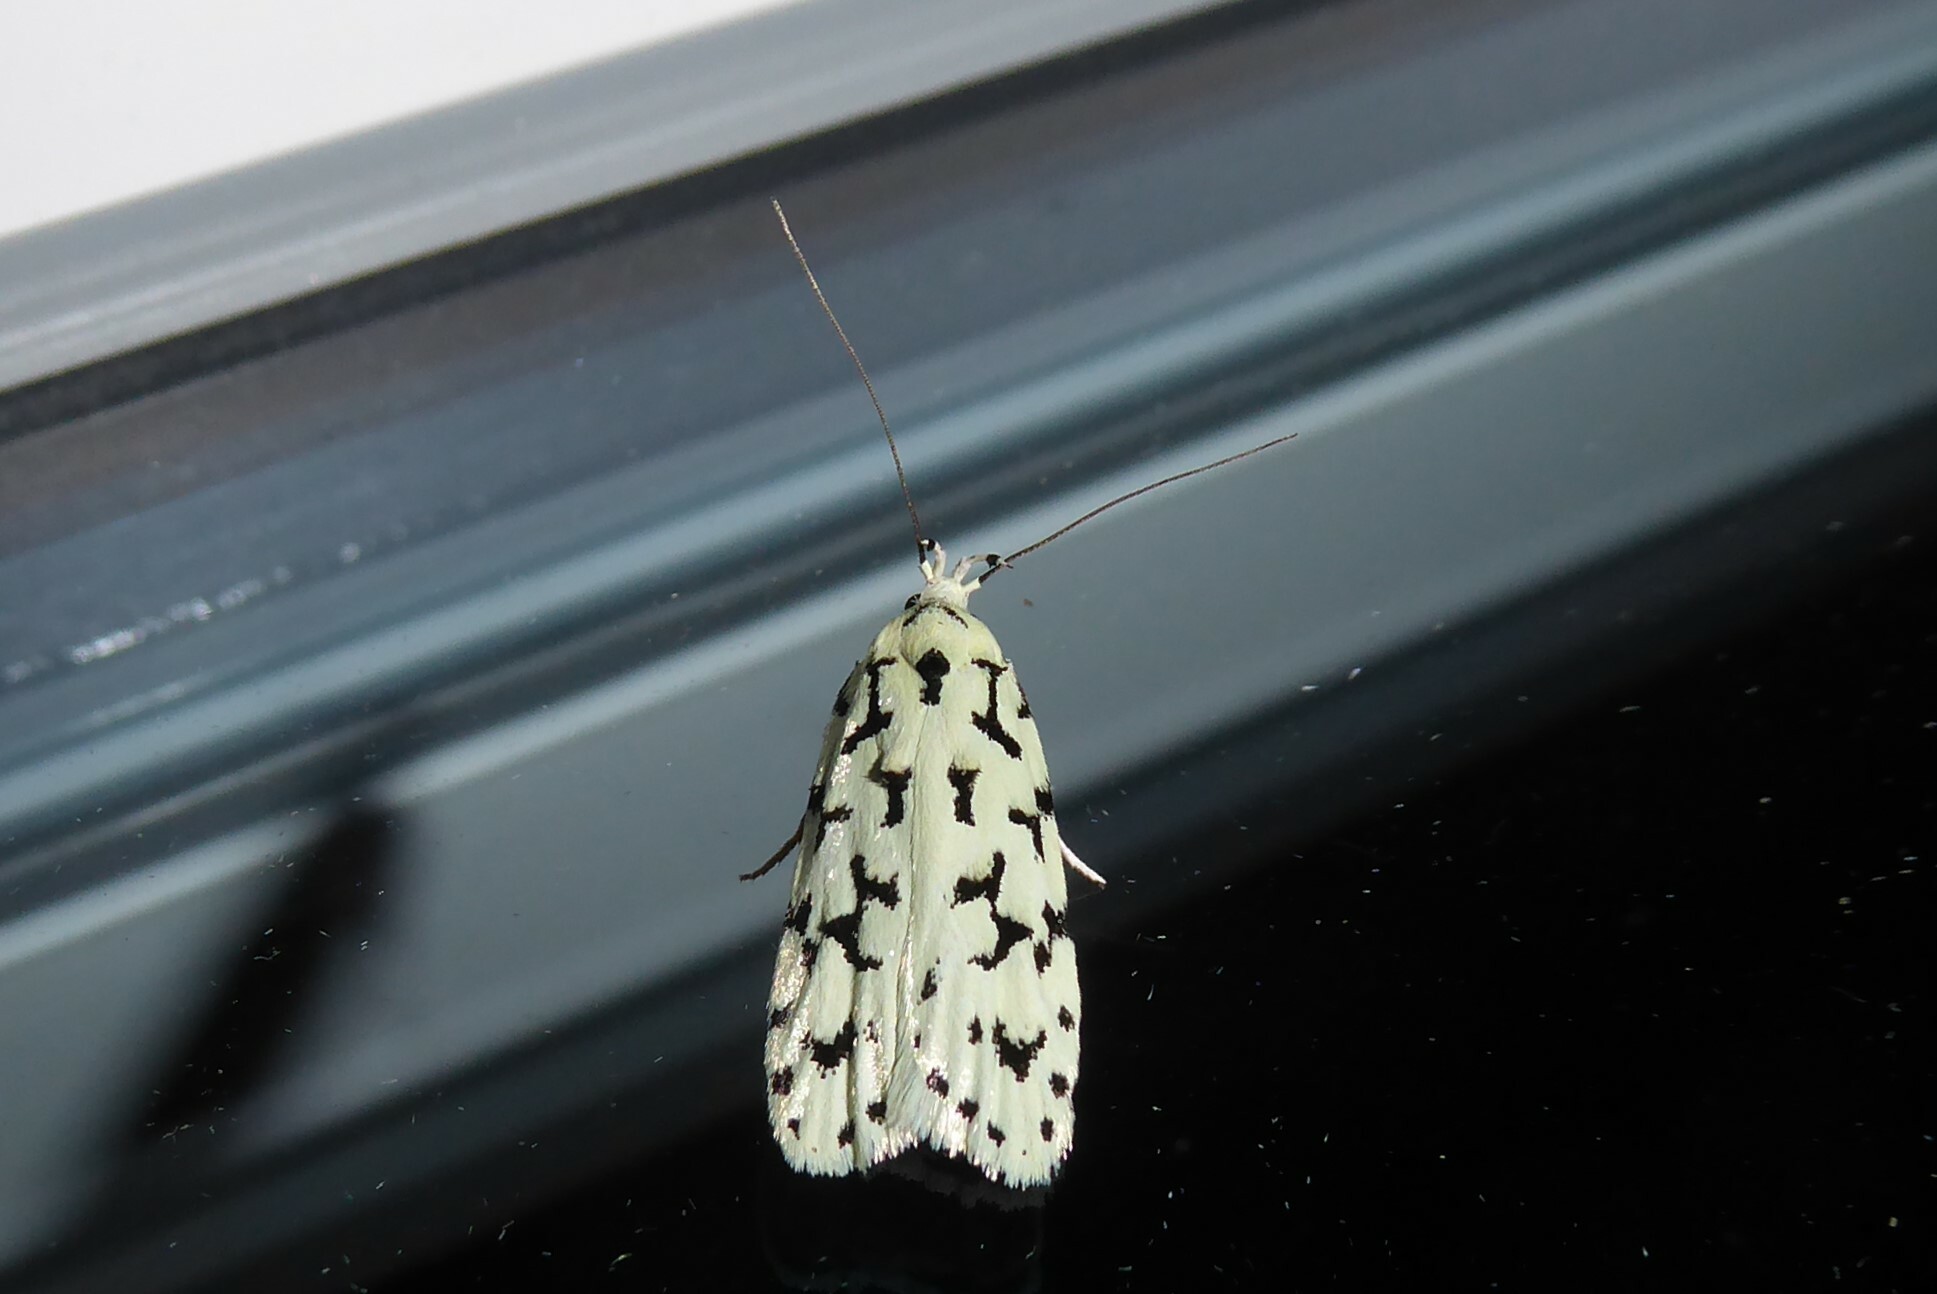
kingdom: Animalia
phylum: Arthropoda
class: Insecta
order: Lepidoptera
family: Oecophoridae
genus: Izatha
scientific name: Izatha huttoni
